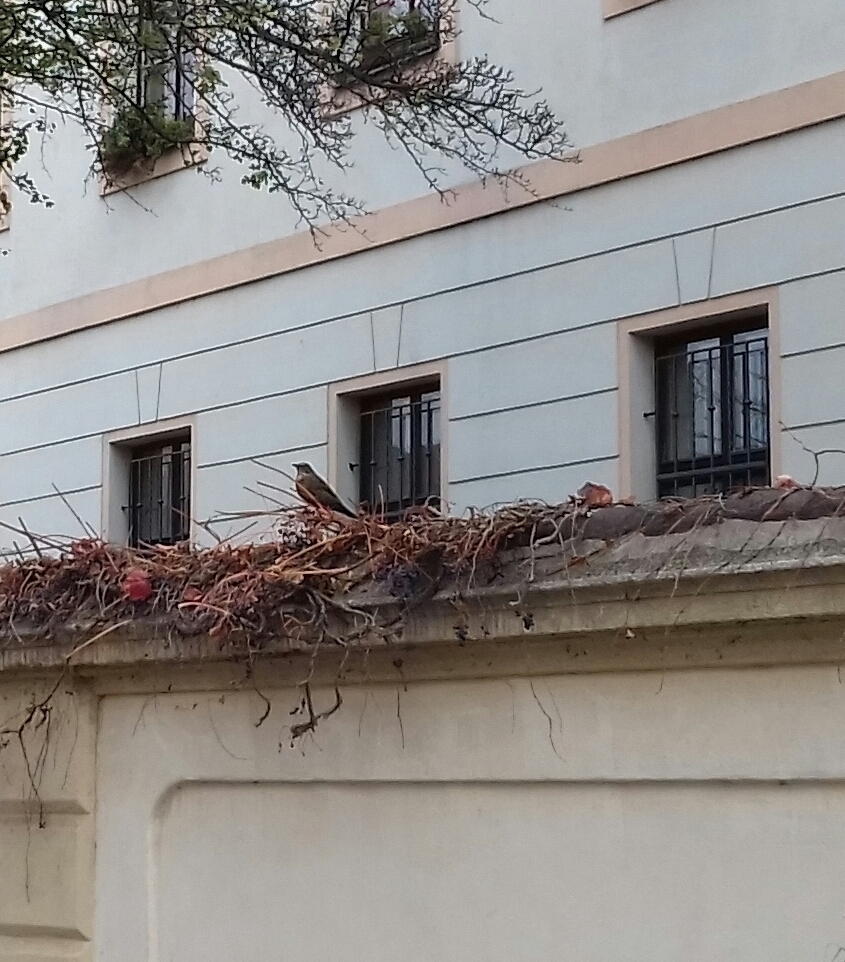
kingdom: Animalia
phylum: Chordata
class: Aves
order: Passeriformes
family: Turdidae
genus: Turdus
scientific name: Turdus merula
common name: Common blackbird
